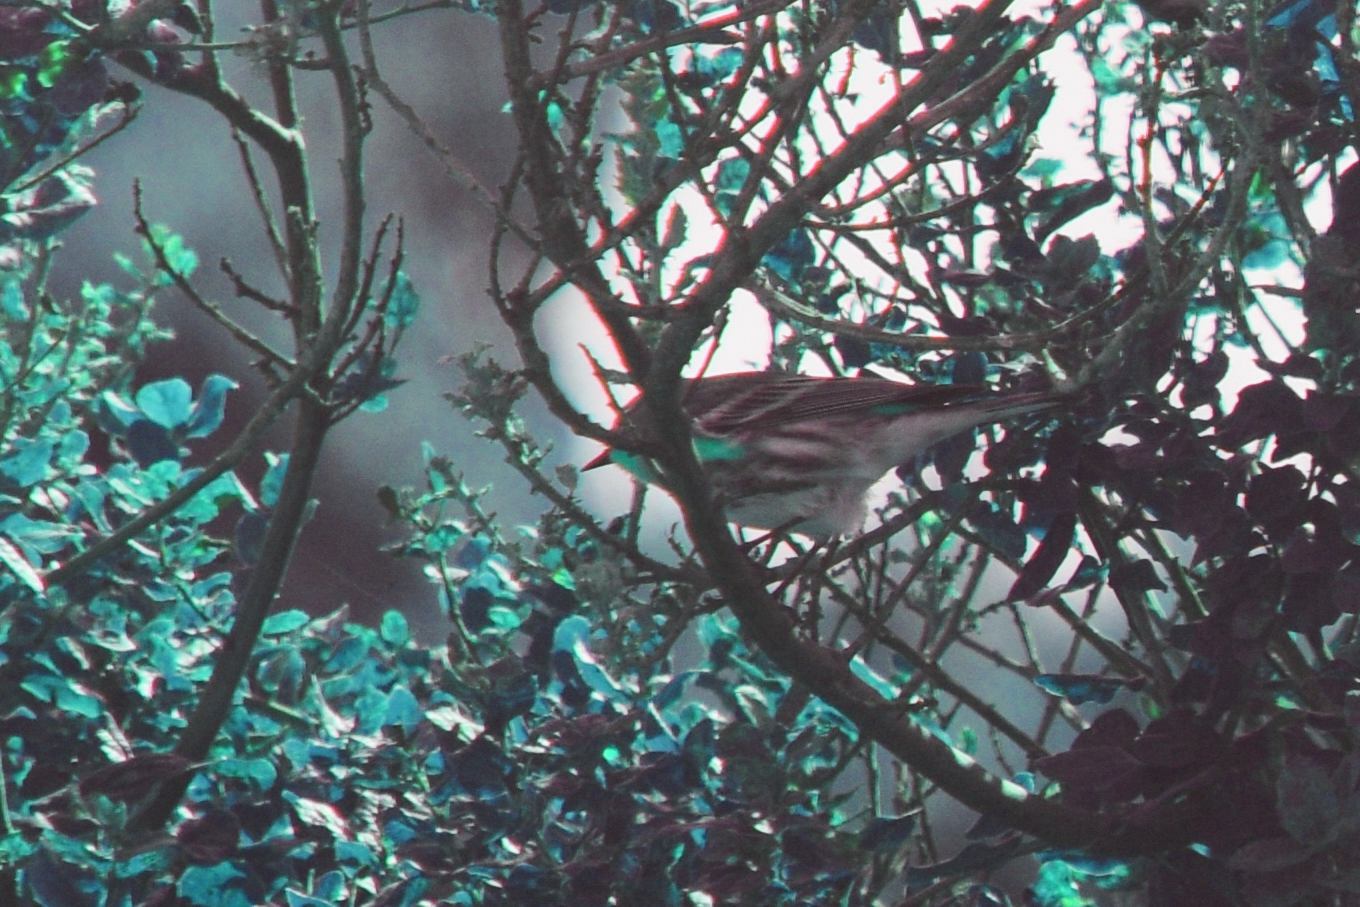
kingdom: Animalia
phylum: Chordata
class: Aves
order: Passeriformes
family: Parulidae
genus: Setophaga
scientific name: Setophaga coronata
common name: Myrtle warbler
